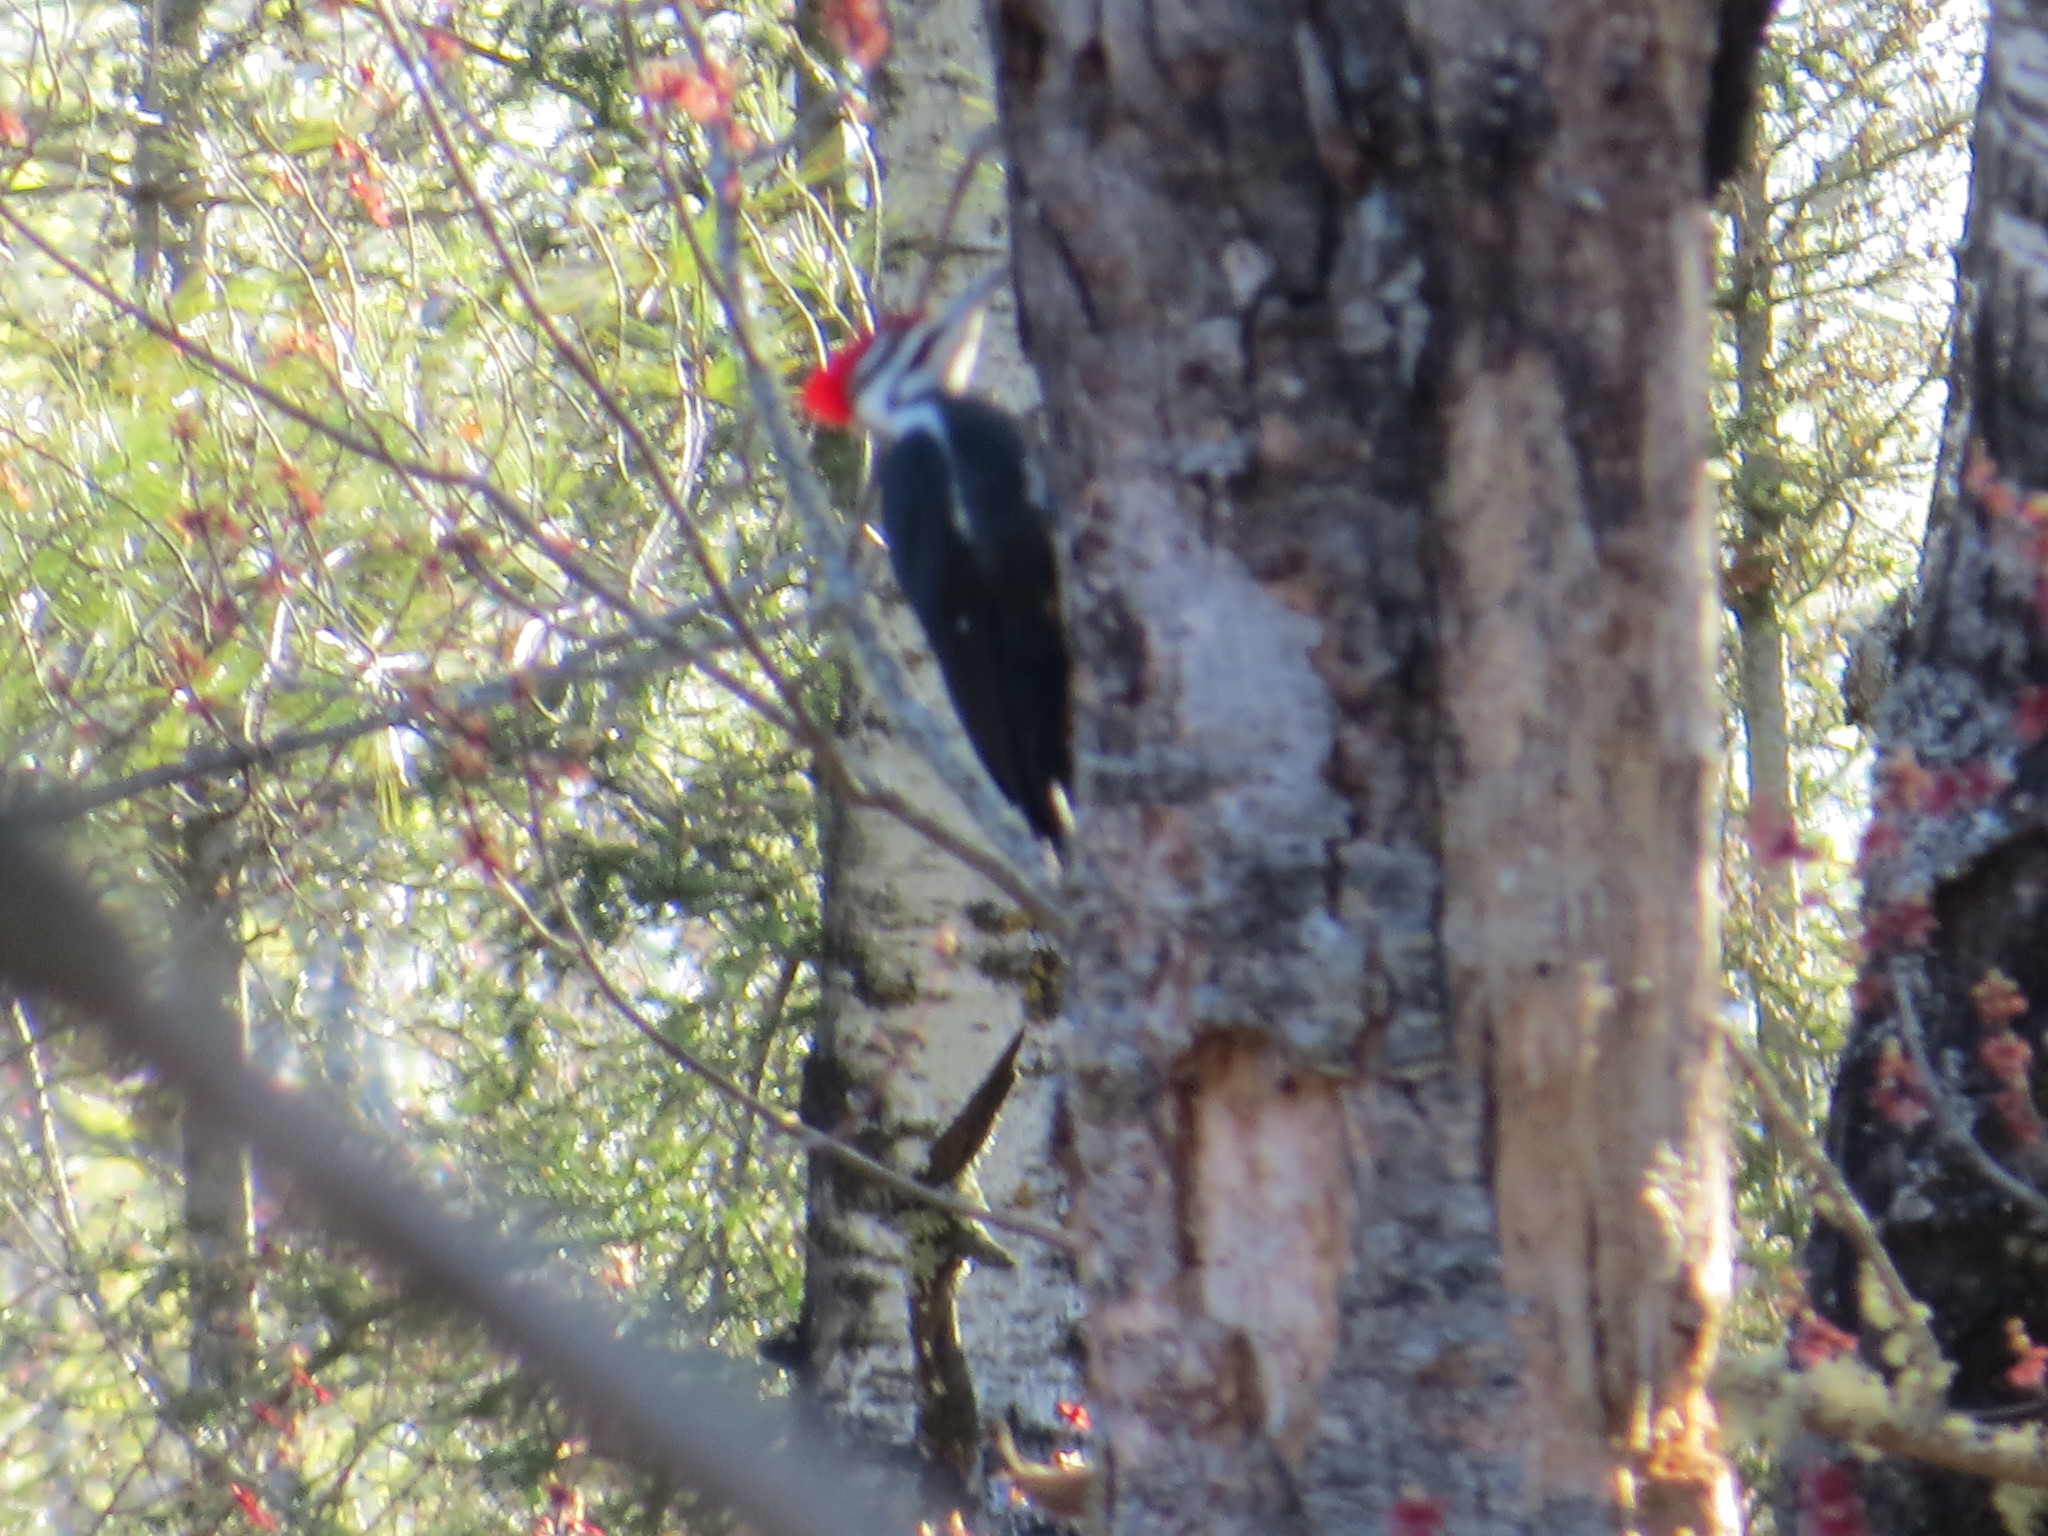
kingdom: Animalia
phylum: Chordata
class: Aves
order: Piciformes
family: Picidae
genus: Dryocopus
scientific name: Dryocopus pileatus
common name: Pileated woodpecker
